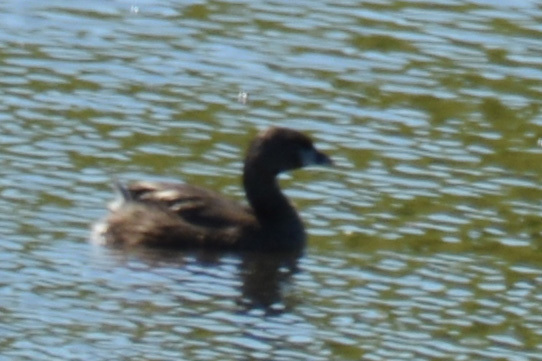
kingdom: Animalia
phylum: Chordata
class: Aves
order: Podicipediformes
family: Podicipedidae
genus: Podilymbus
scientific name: Podilymbus podiceps
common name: Pied-billed grebe
